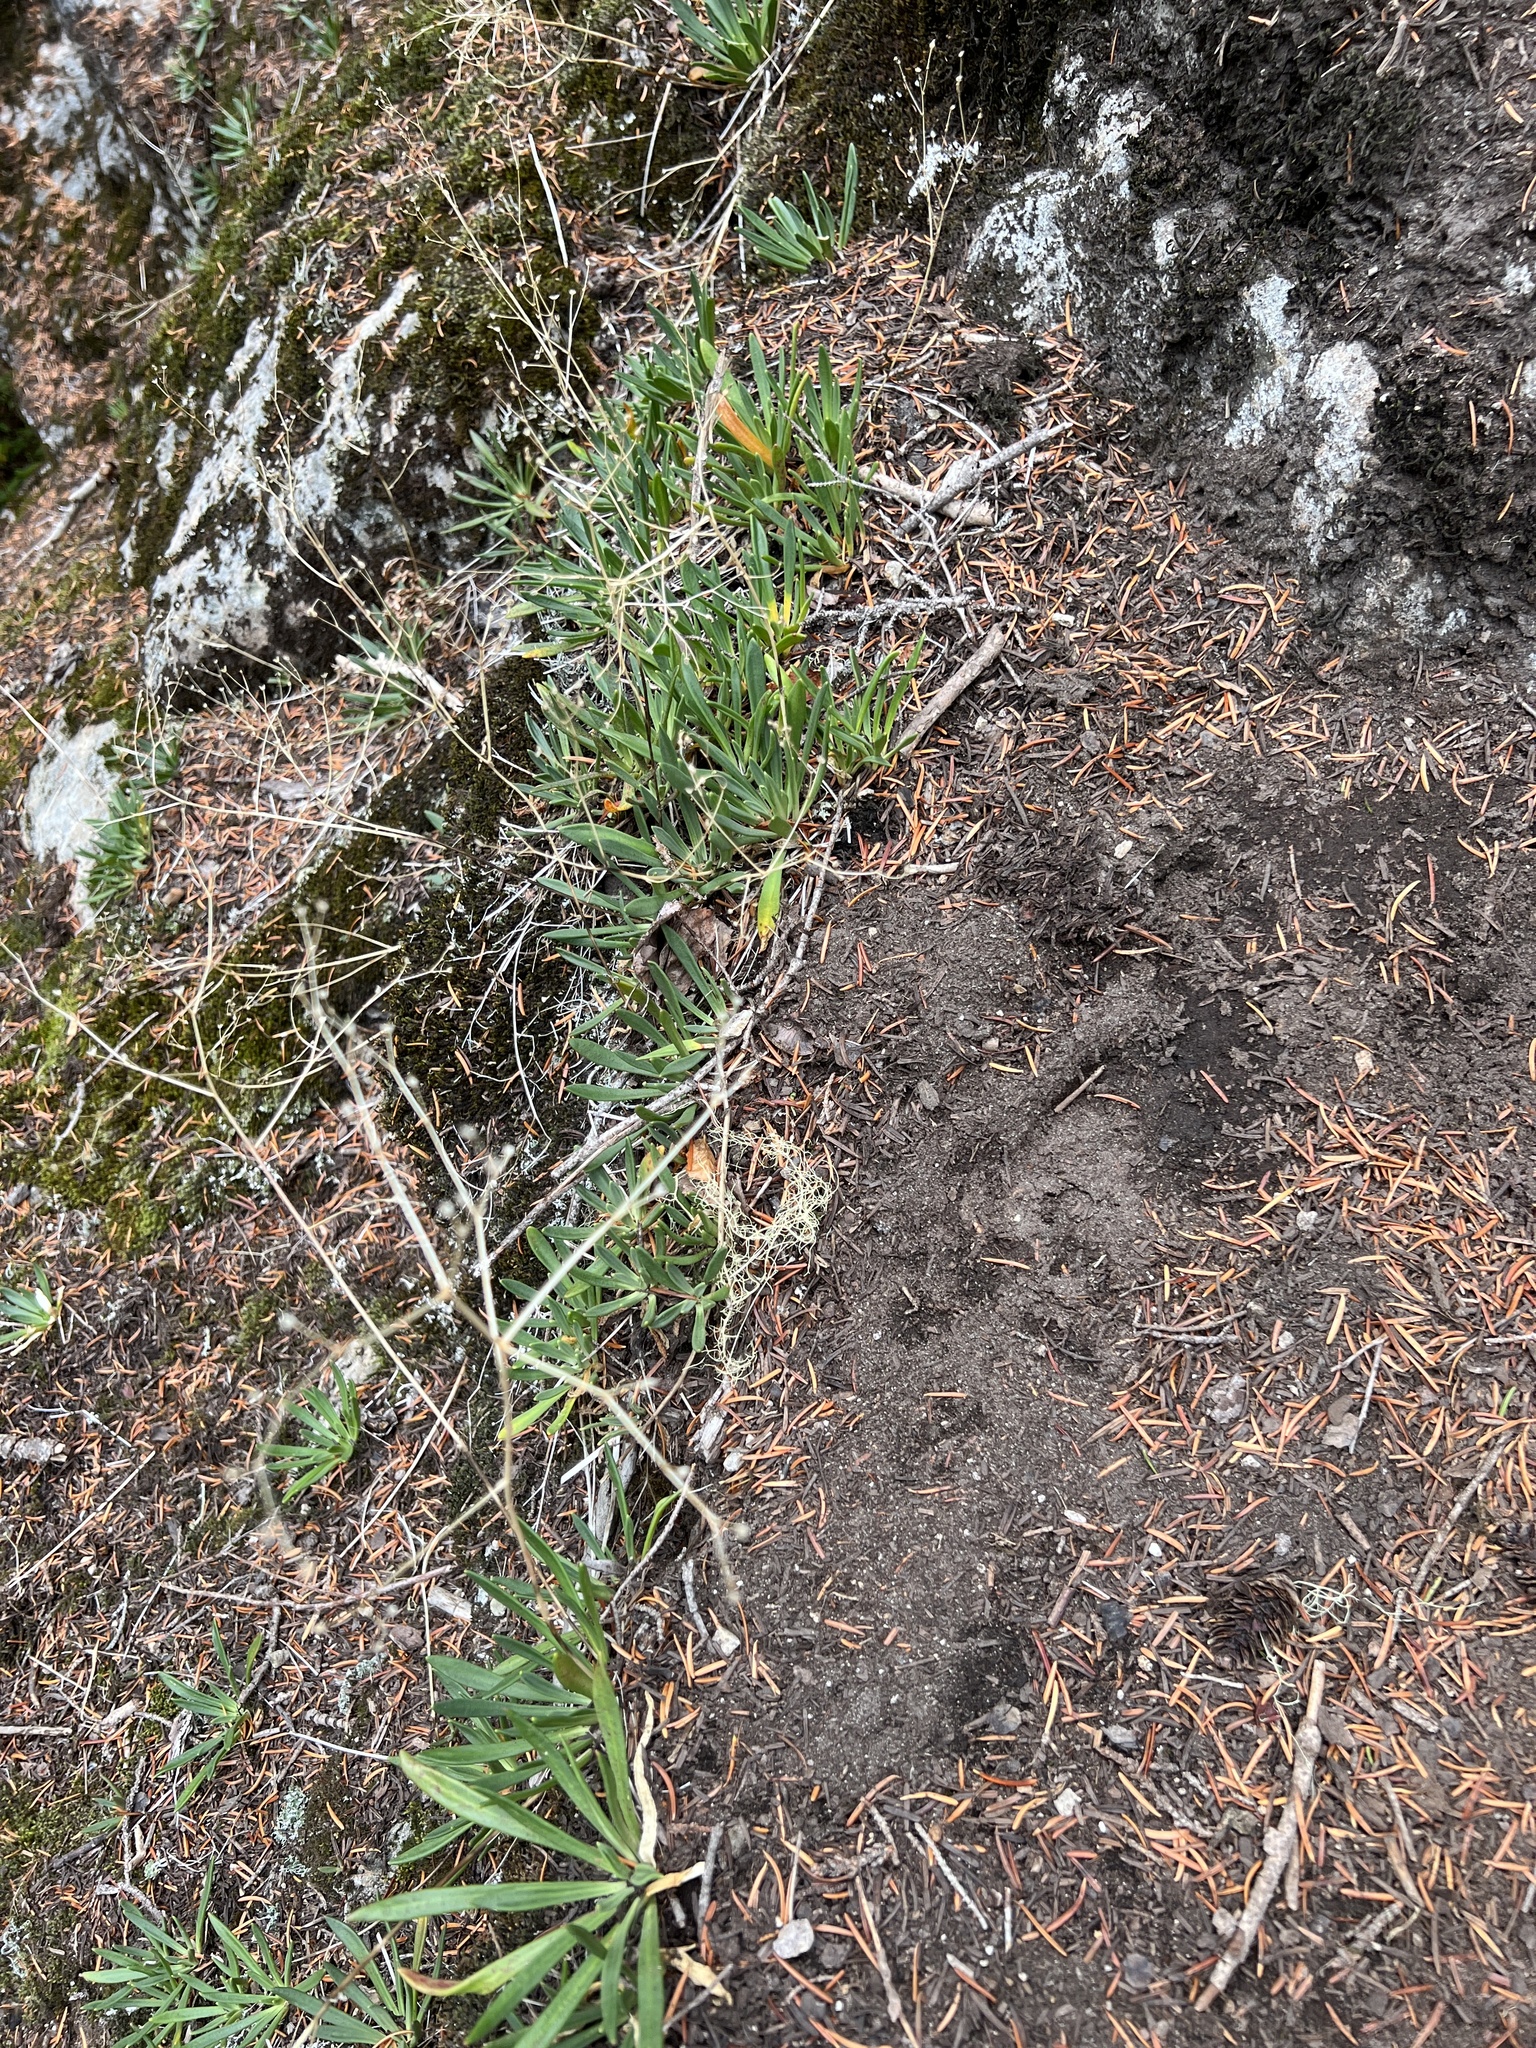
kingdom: Plantae
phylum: Tracheophyta
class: Magnoliopsida
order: Caryophyllales
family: Montiaceae
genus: Lewisia
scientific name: Lewisia columbiana
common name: Columbia lewisia
